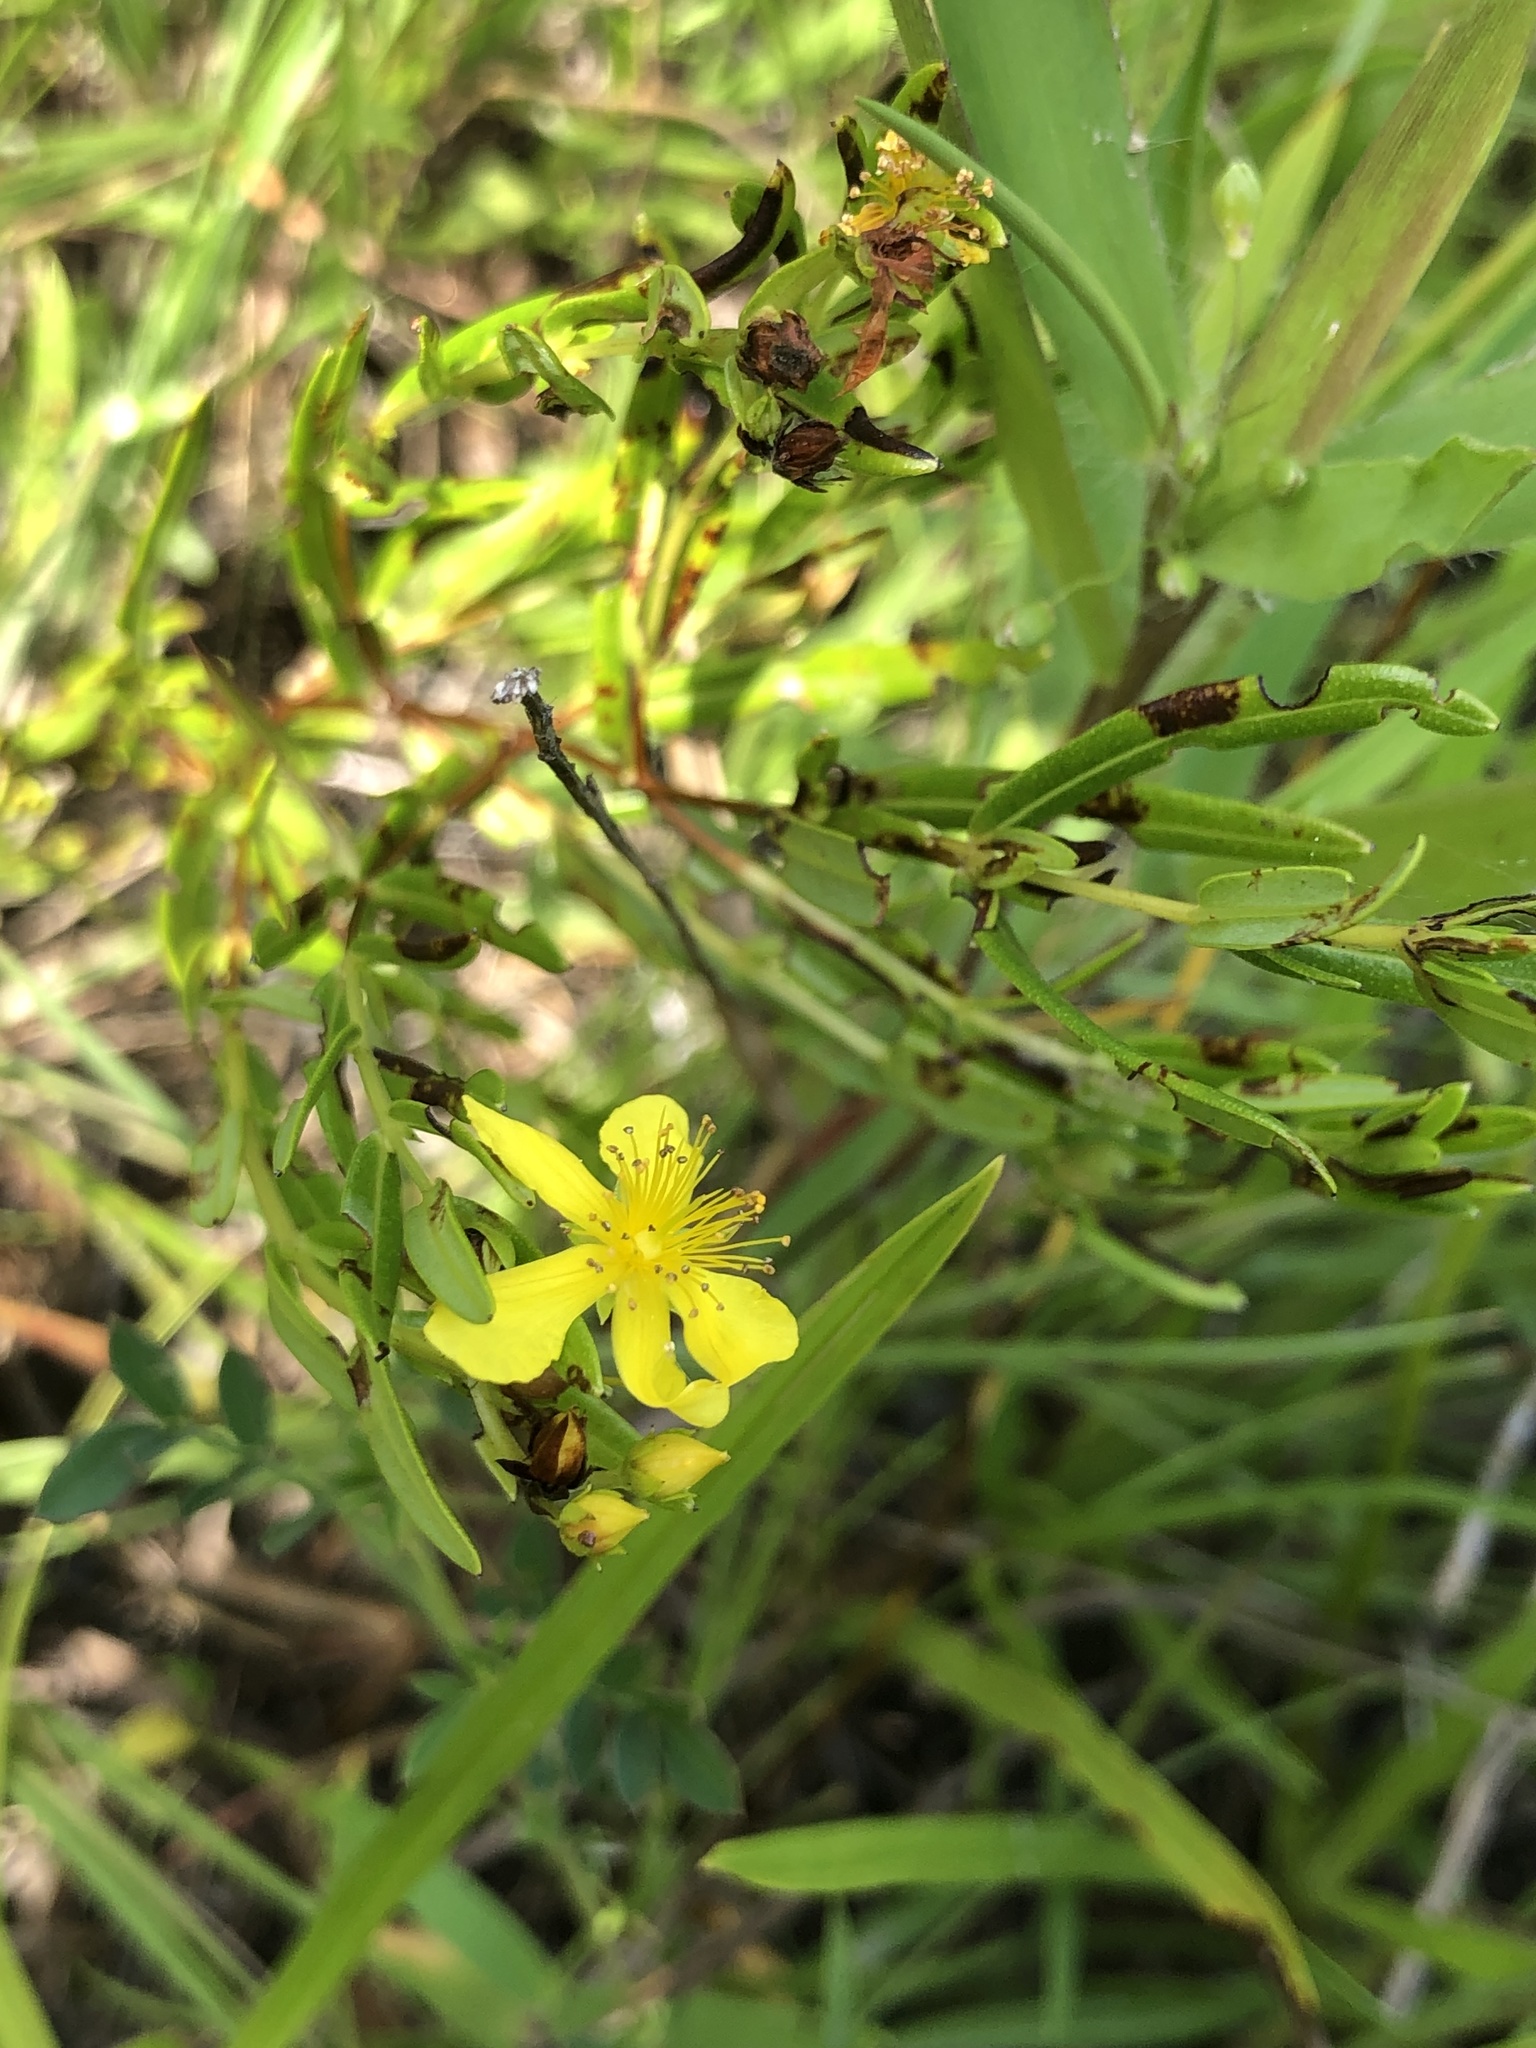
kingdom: Plantae
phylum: Tracheophyta
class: Magnoliopsida
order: Malpighiales
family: Hypericaceae
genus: Hypericum
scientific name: Hypericum sphaerocarpum
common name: Round-fruited st. john's-wort
